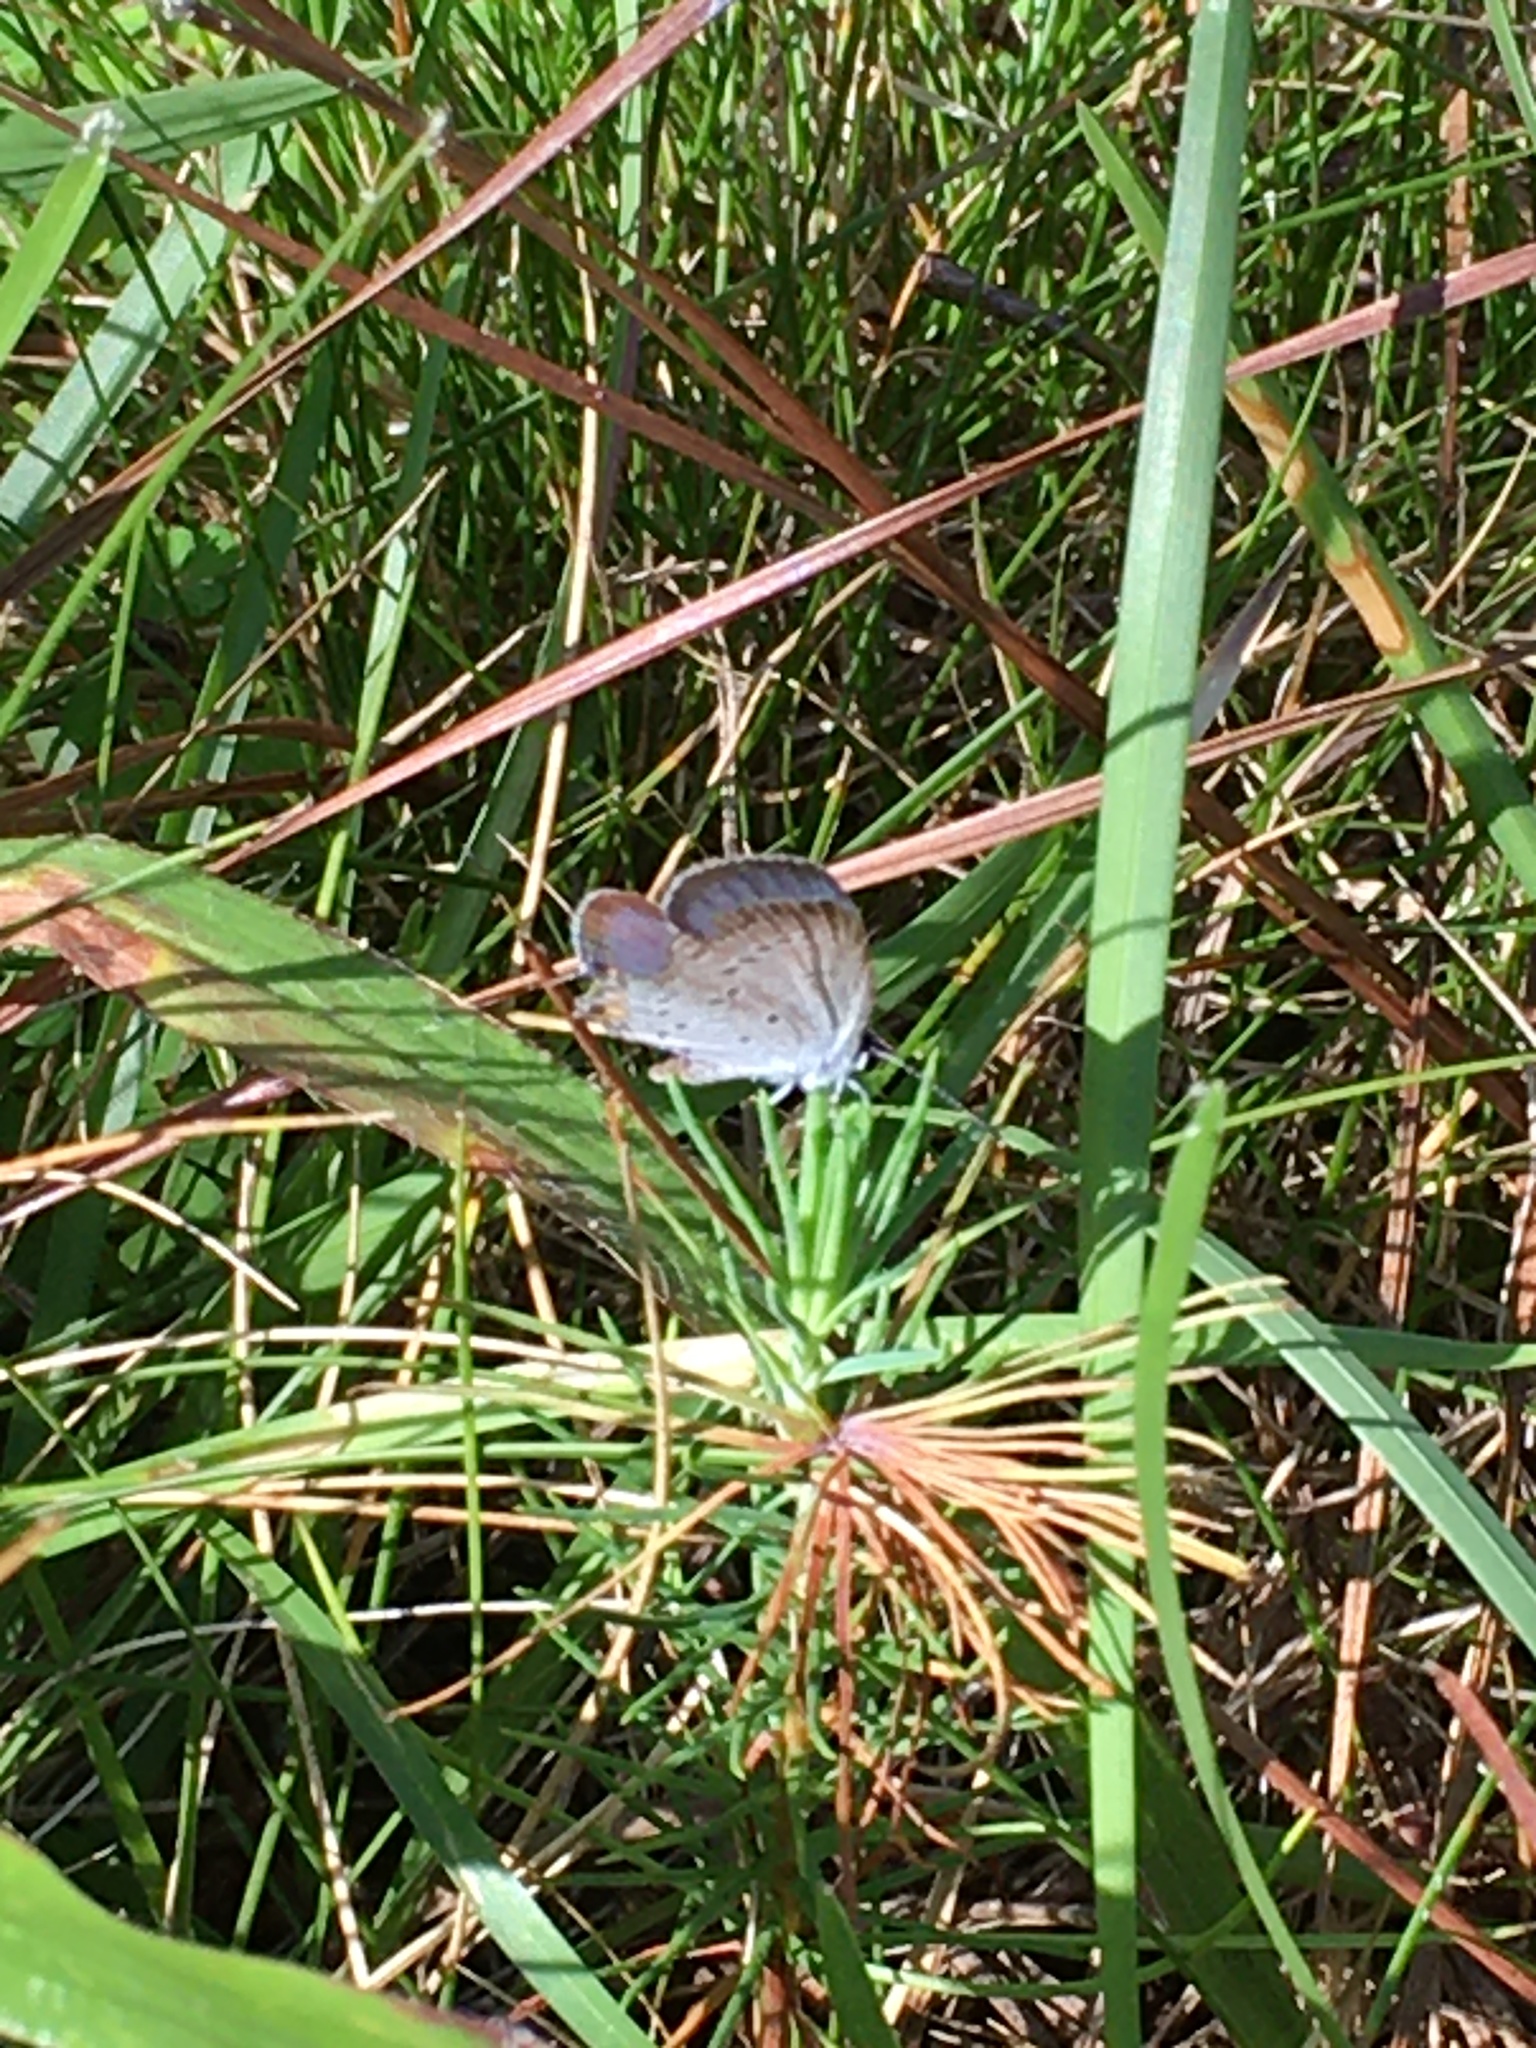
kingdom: Animalia
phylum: Arthropoda
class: Insecta
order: Lepidoptera
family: Lycaenidae
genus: Elkalyce
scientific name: Elkalyce comyntas
